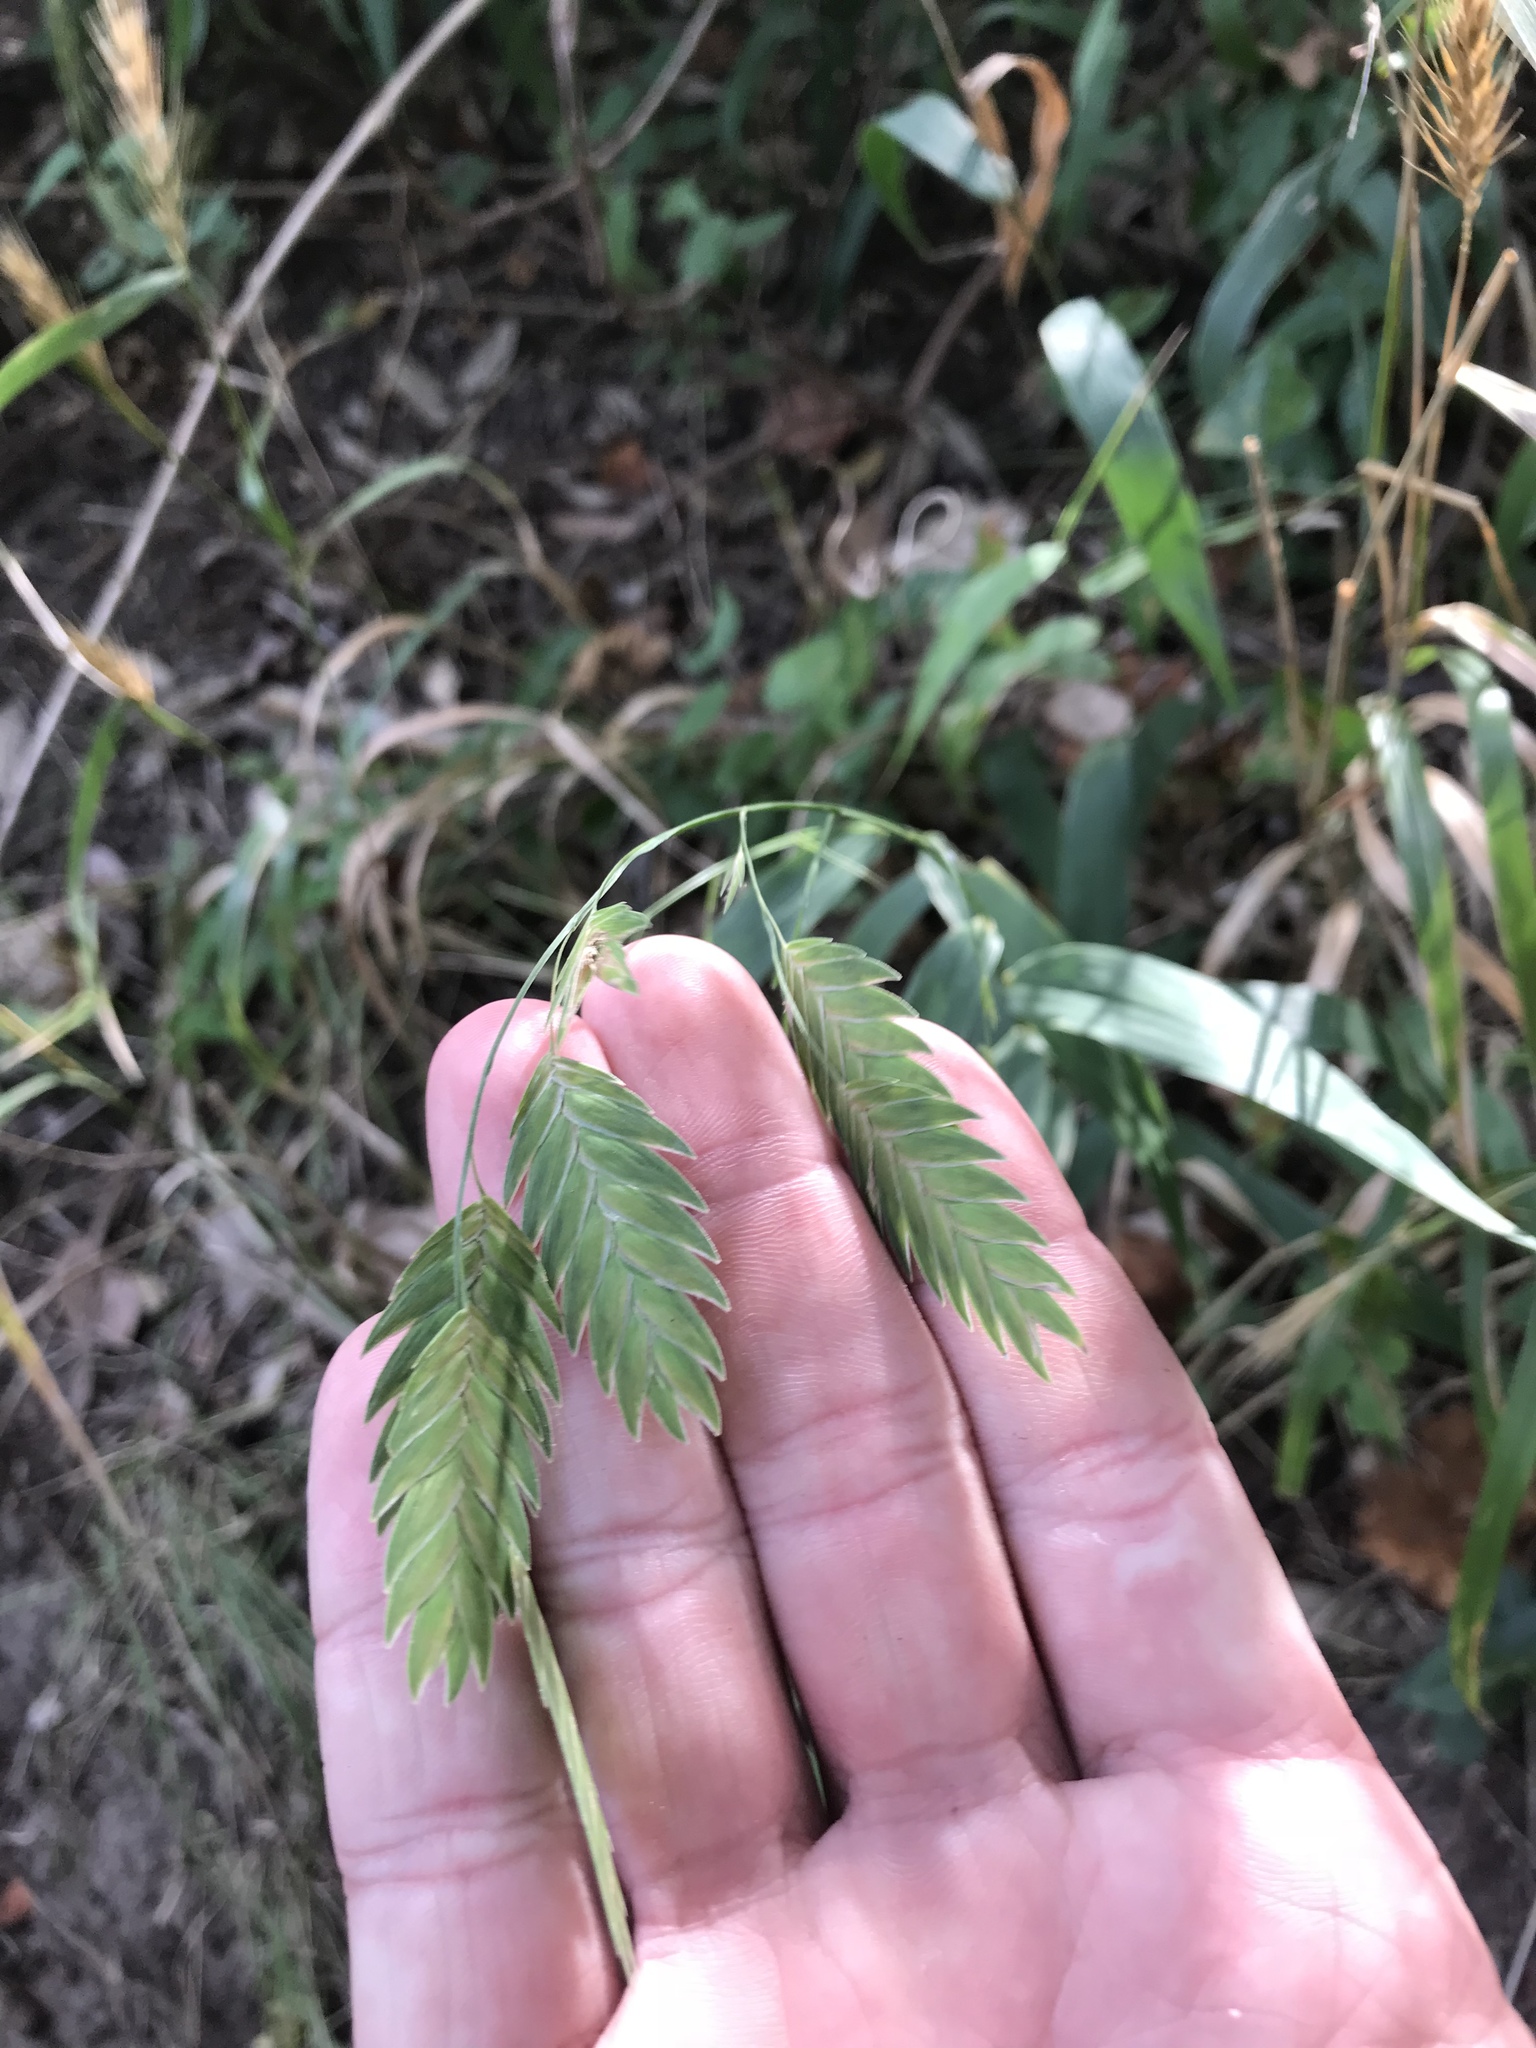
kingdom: Plantae
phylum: Tracheophyta
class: Liliopsida
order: Poales
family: Poaceae
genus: Chasmanthium
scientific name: Chasmanthium latifolium
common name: Broad-leaved chasmanthium
